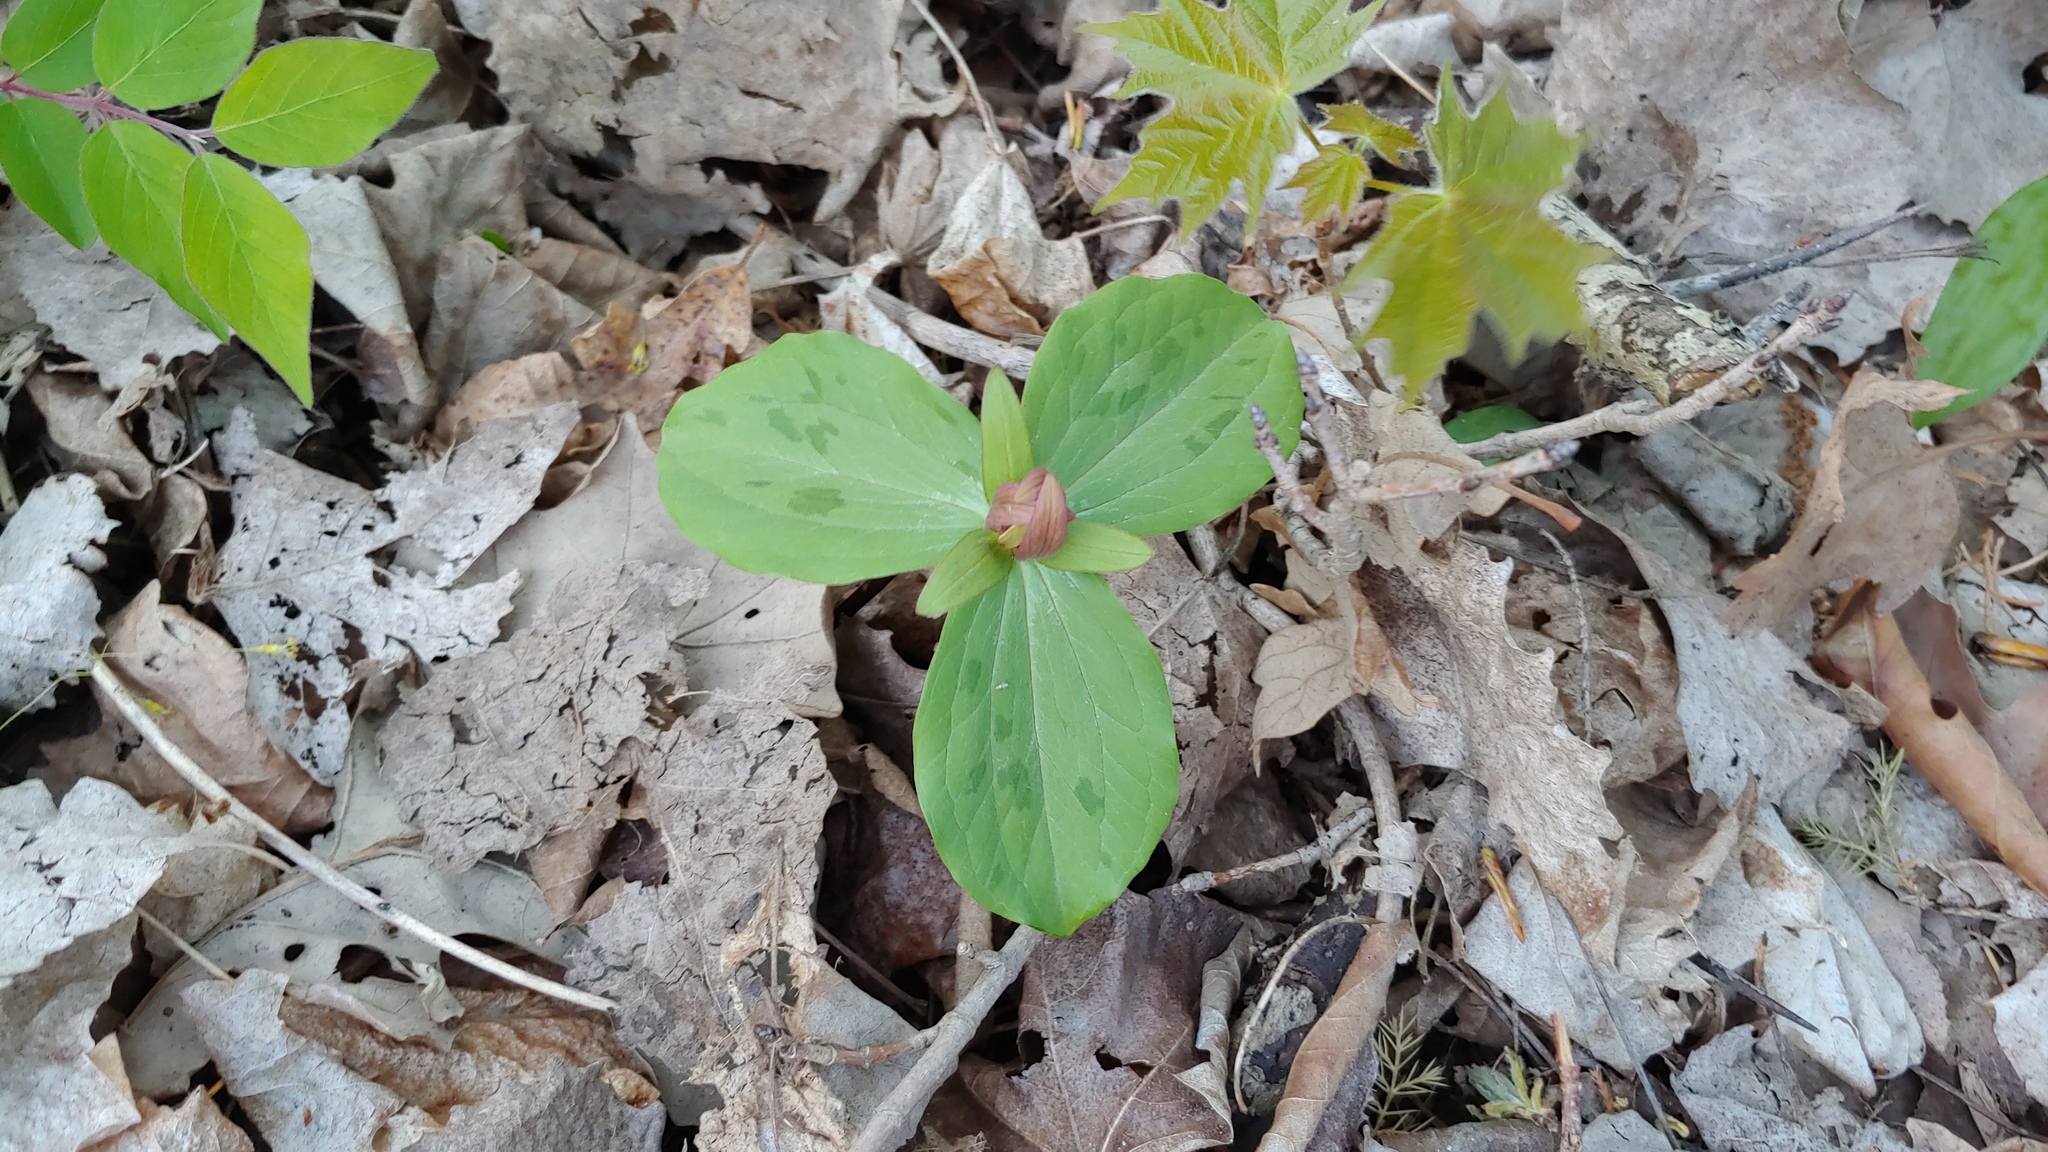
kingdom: Plantae
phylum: Tracheophyta
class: Liliopsida
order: Liliales
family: Melanthiaceae
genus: Trillium
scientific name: Trillium sessile
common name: Sessile trillium
